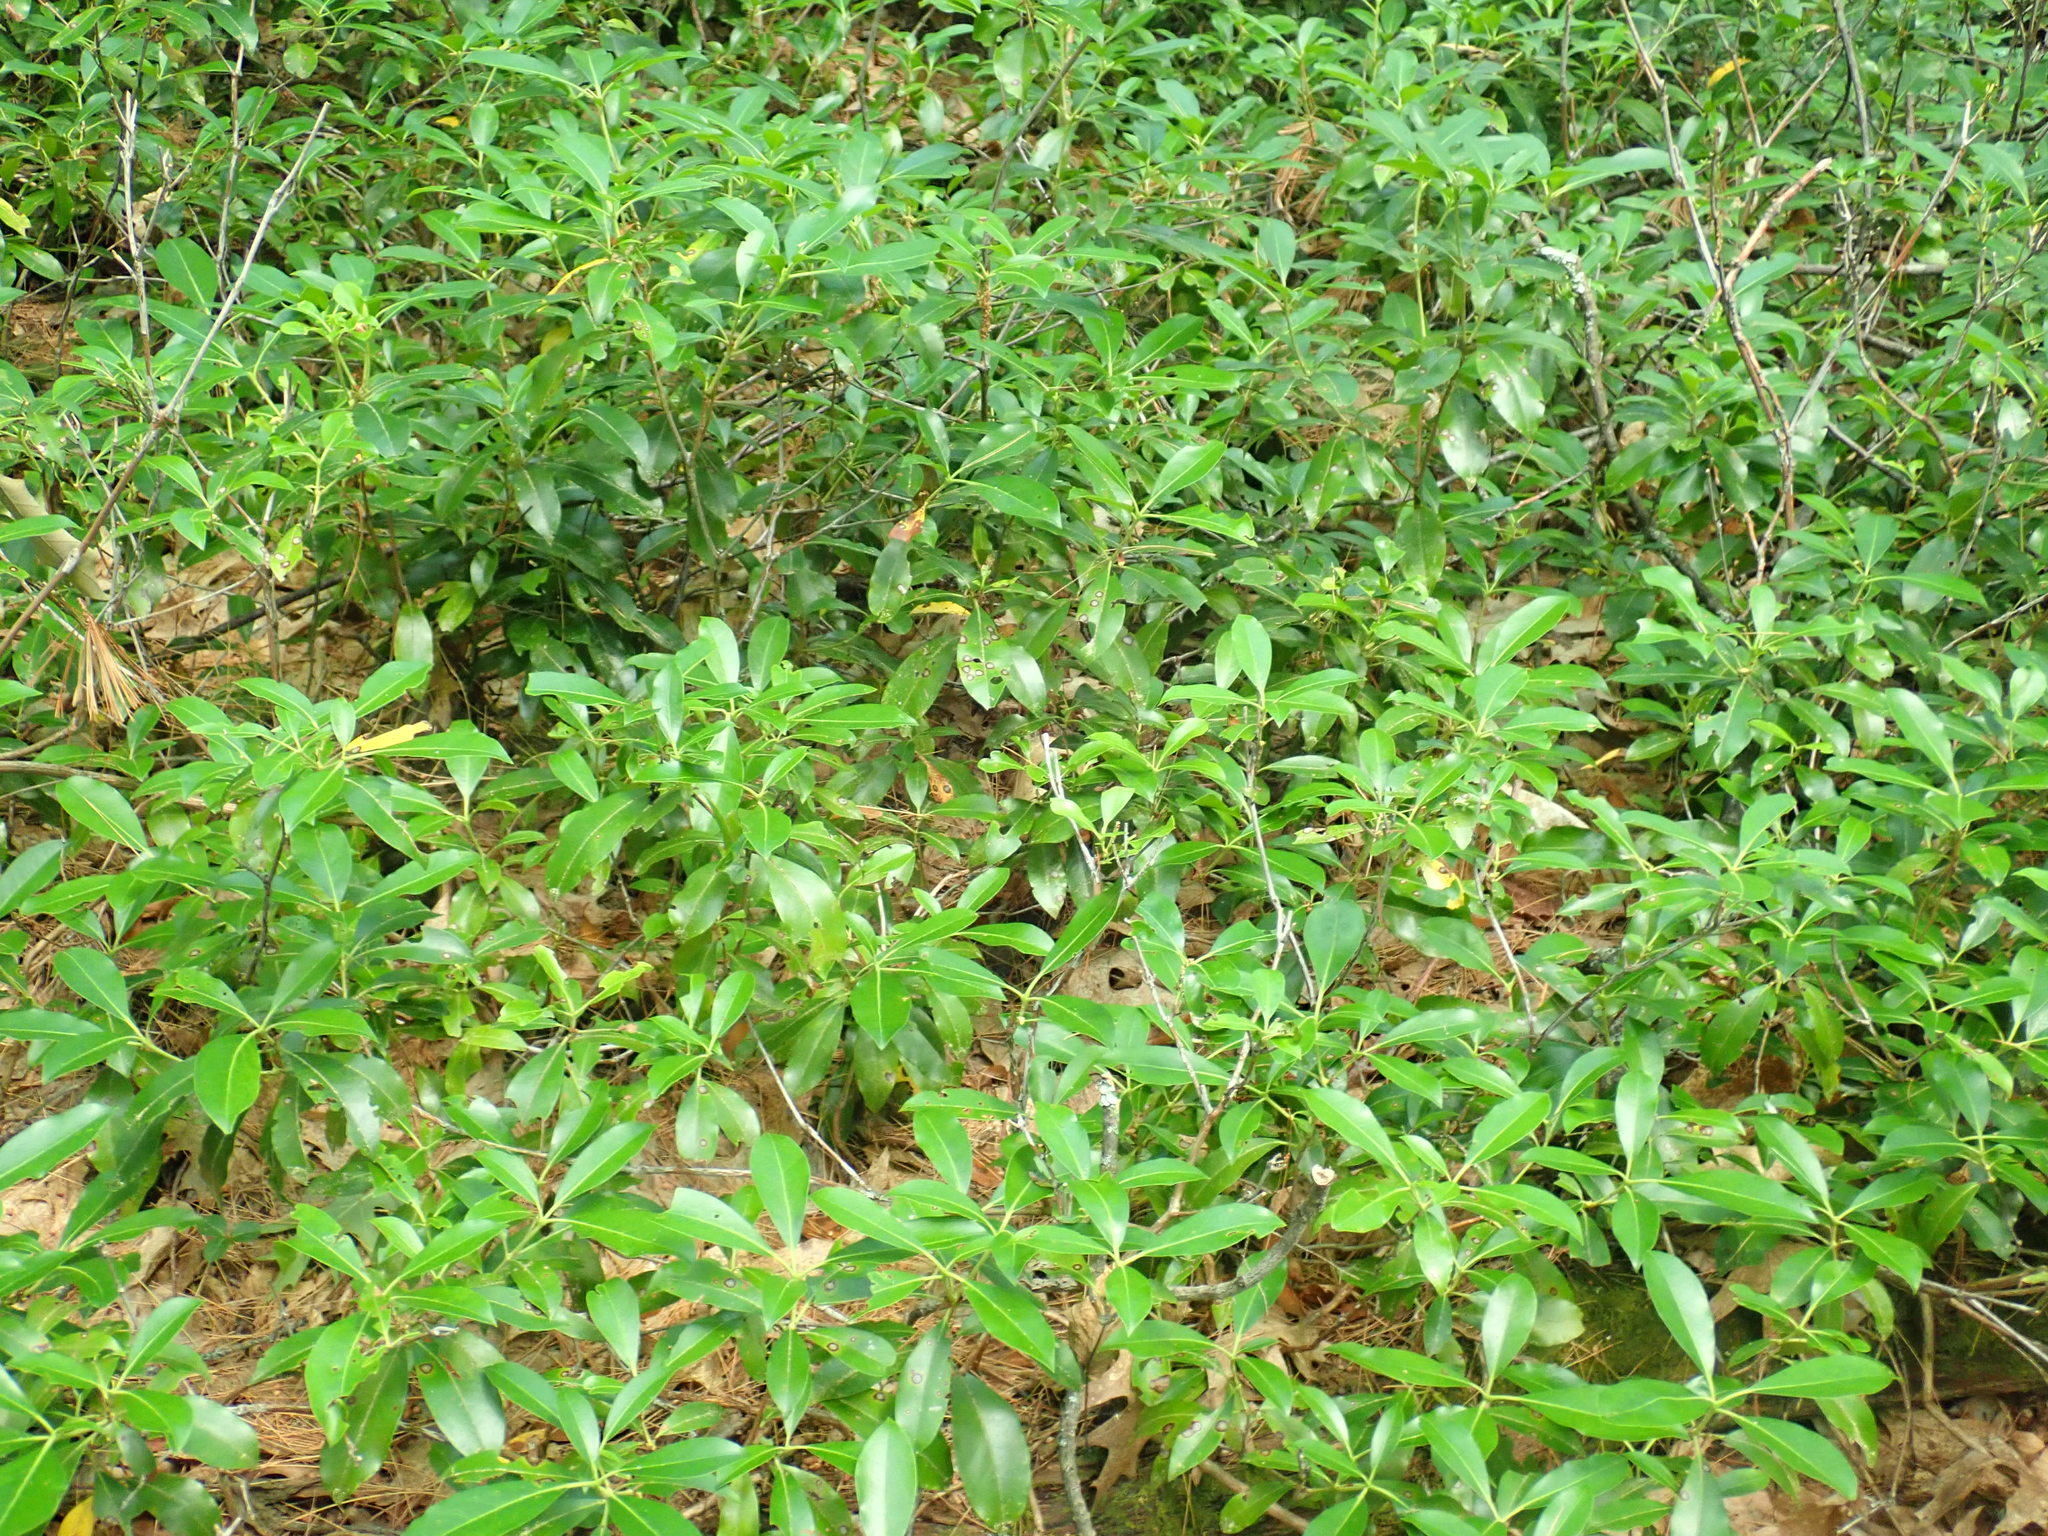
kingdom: Plantae
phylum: Tracheophyta
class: Magnoliopsida
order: Ericales
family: Ericaceae
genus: Kalmia
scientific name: Kalmia latifolia
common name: Mountain-laurel
